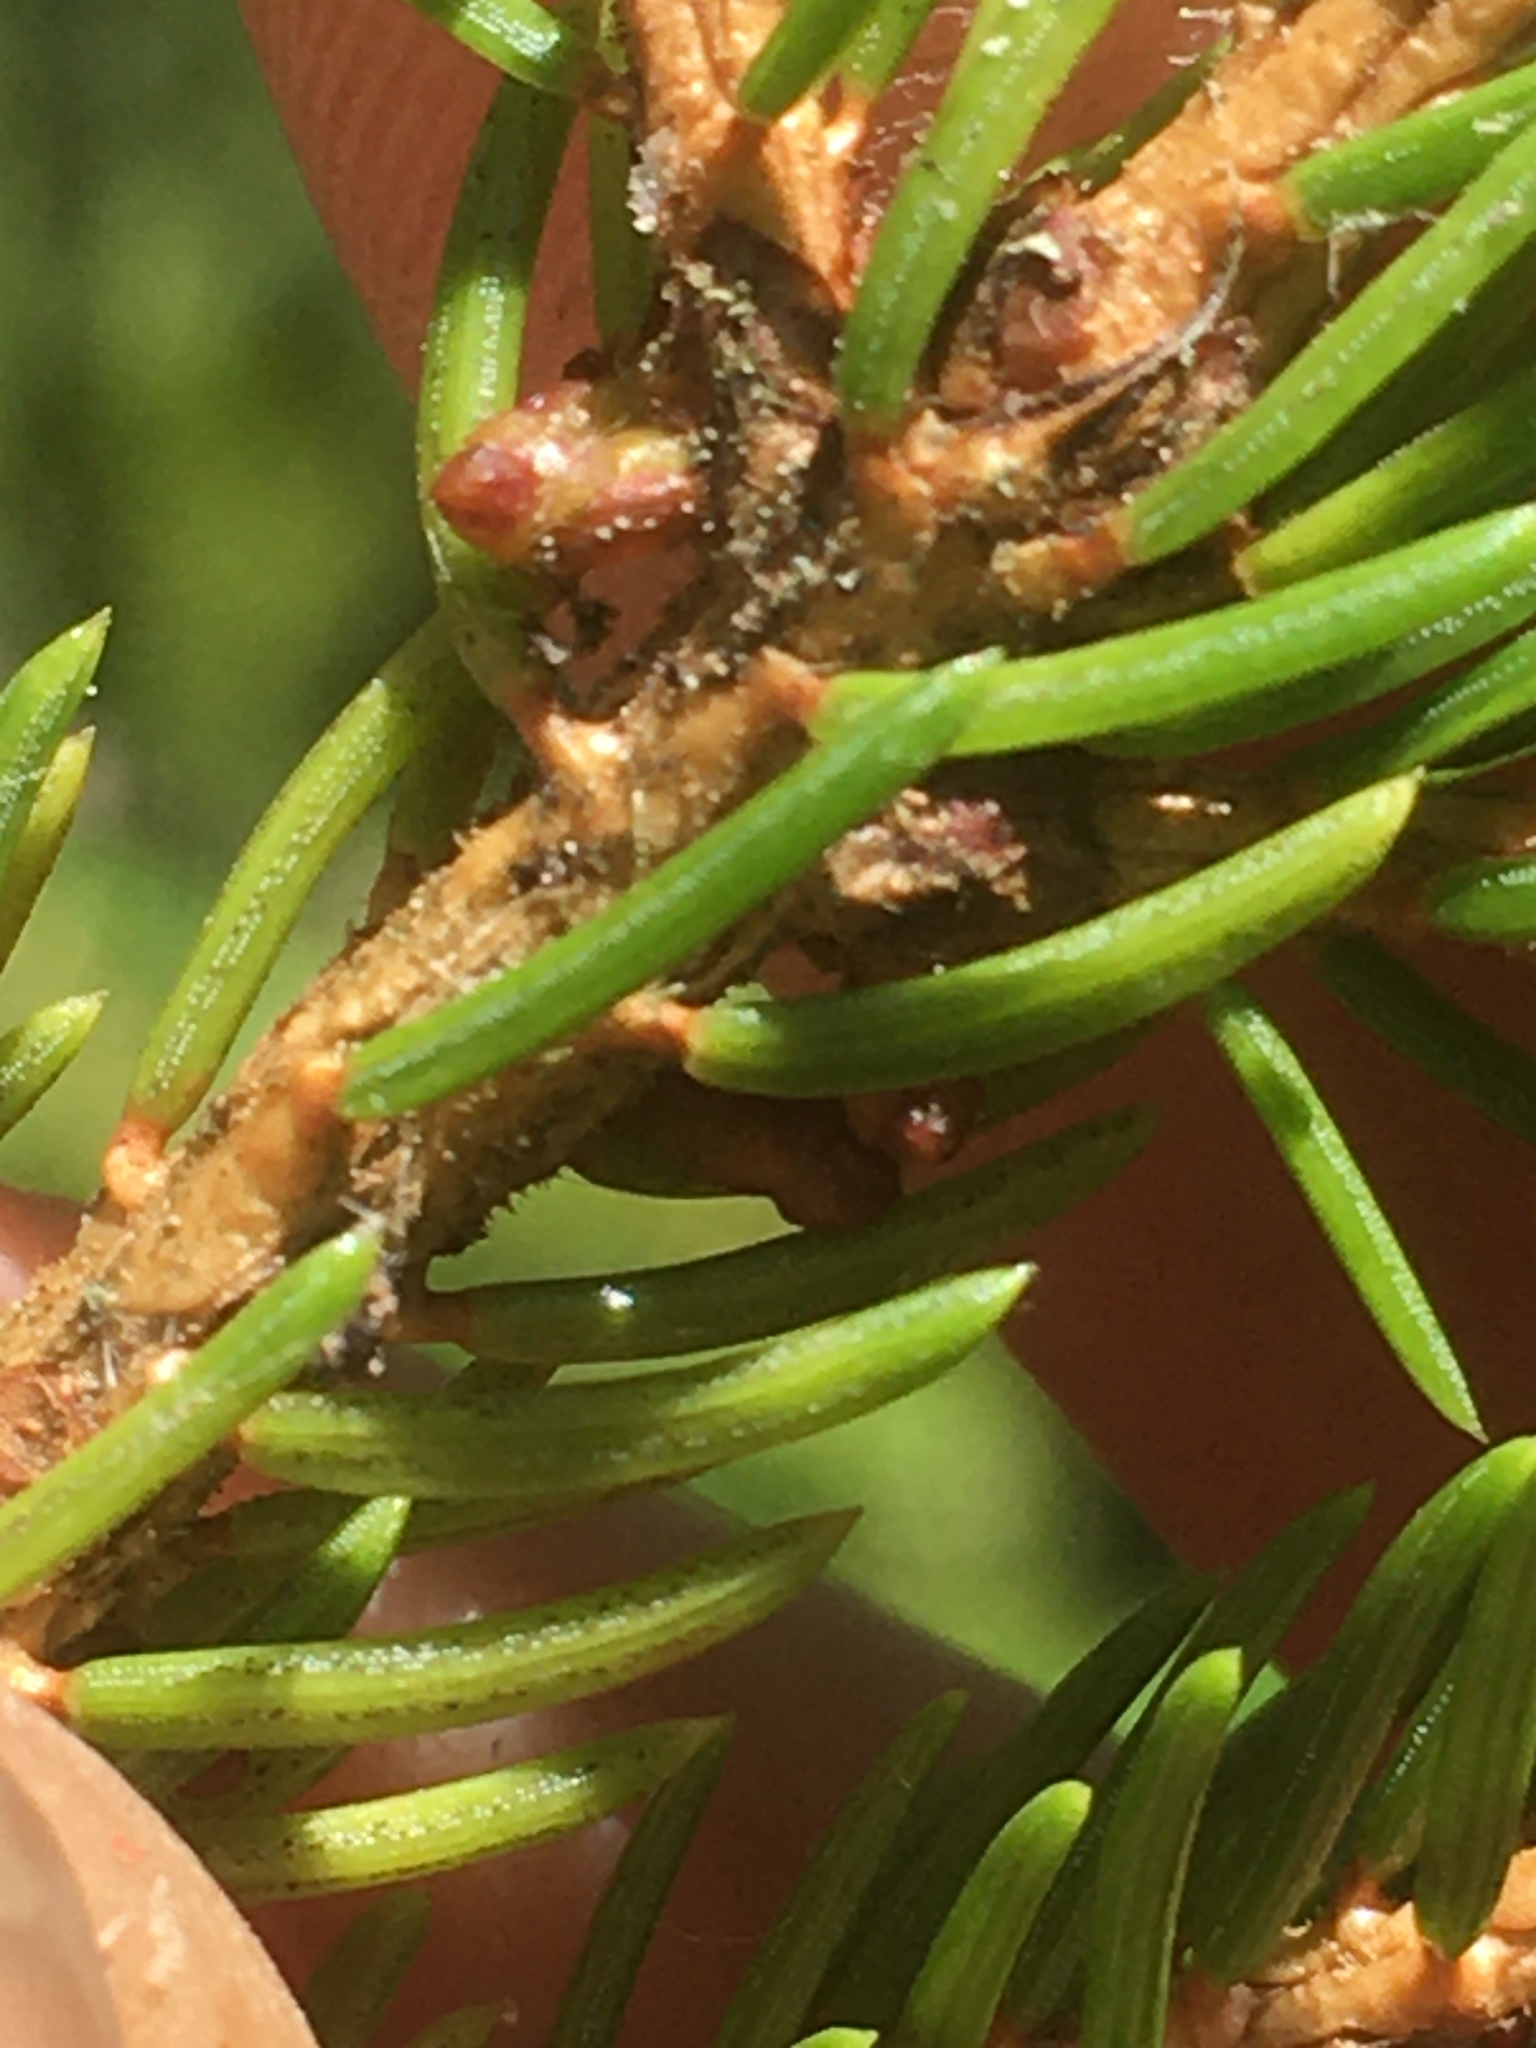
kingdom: Plantae
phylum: Tracheophyta
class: Magnoliopsida
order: Santalales
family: Viscaceae
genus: Arceuthobium
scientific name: Arceuthobium pusillum
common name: Dwarf-mistletoe
